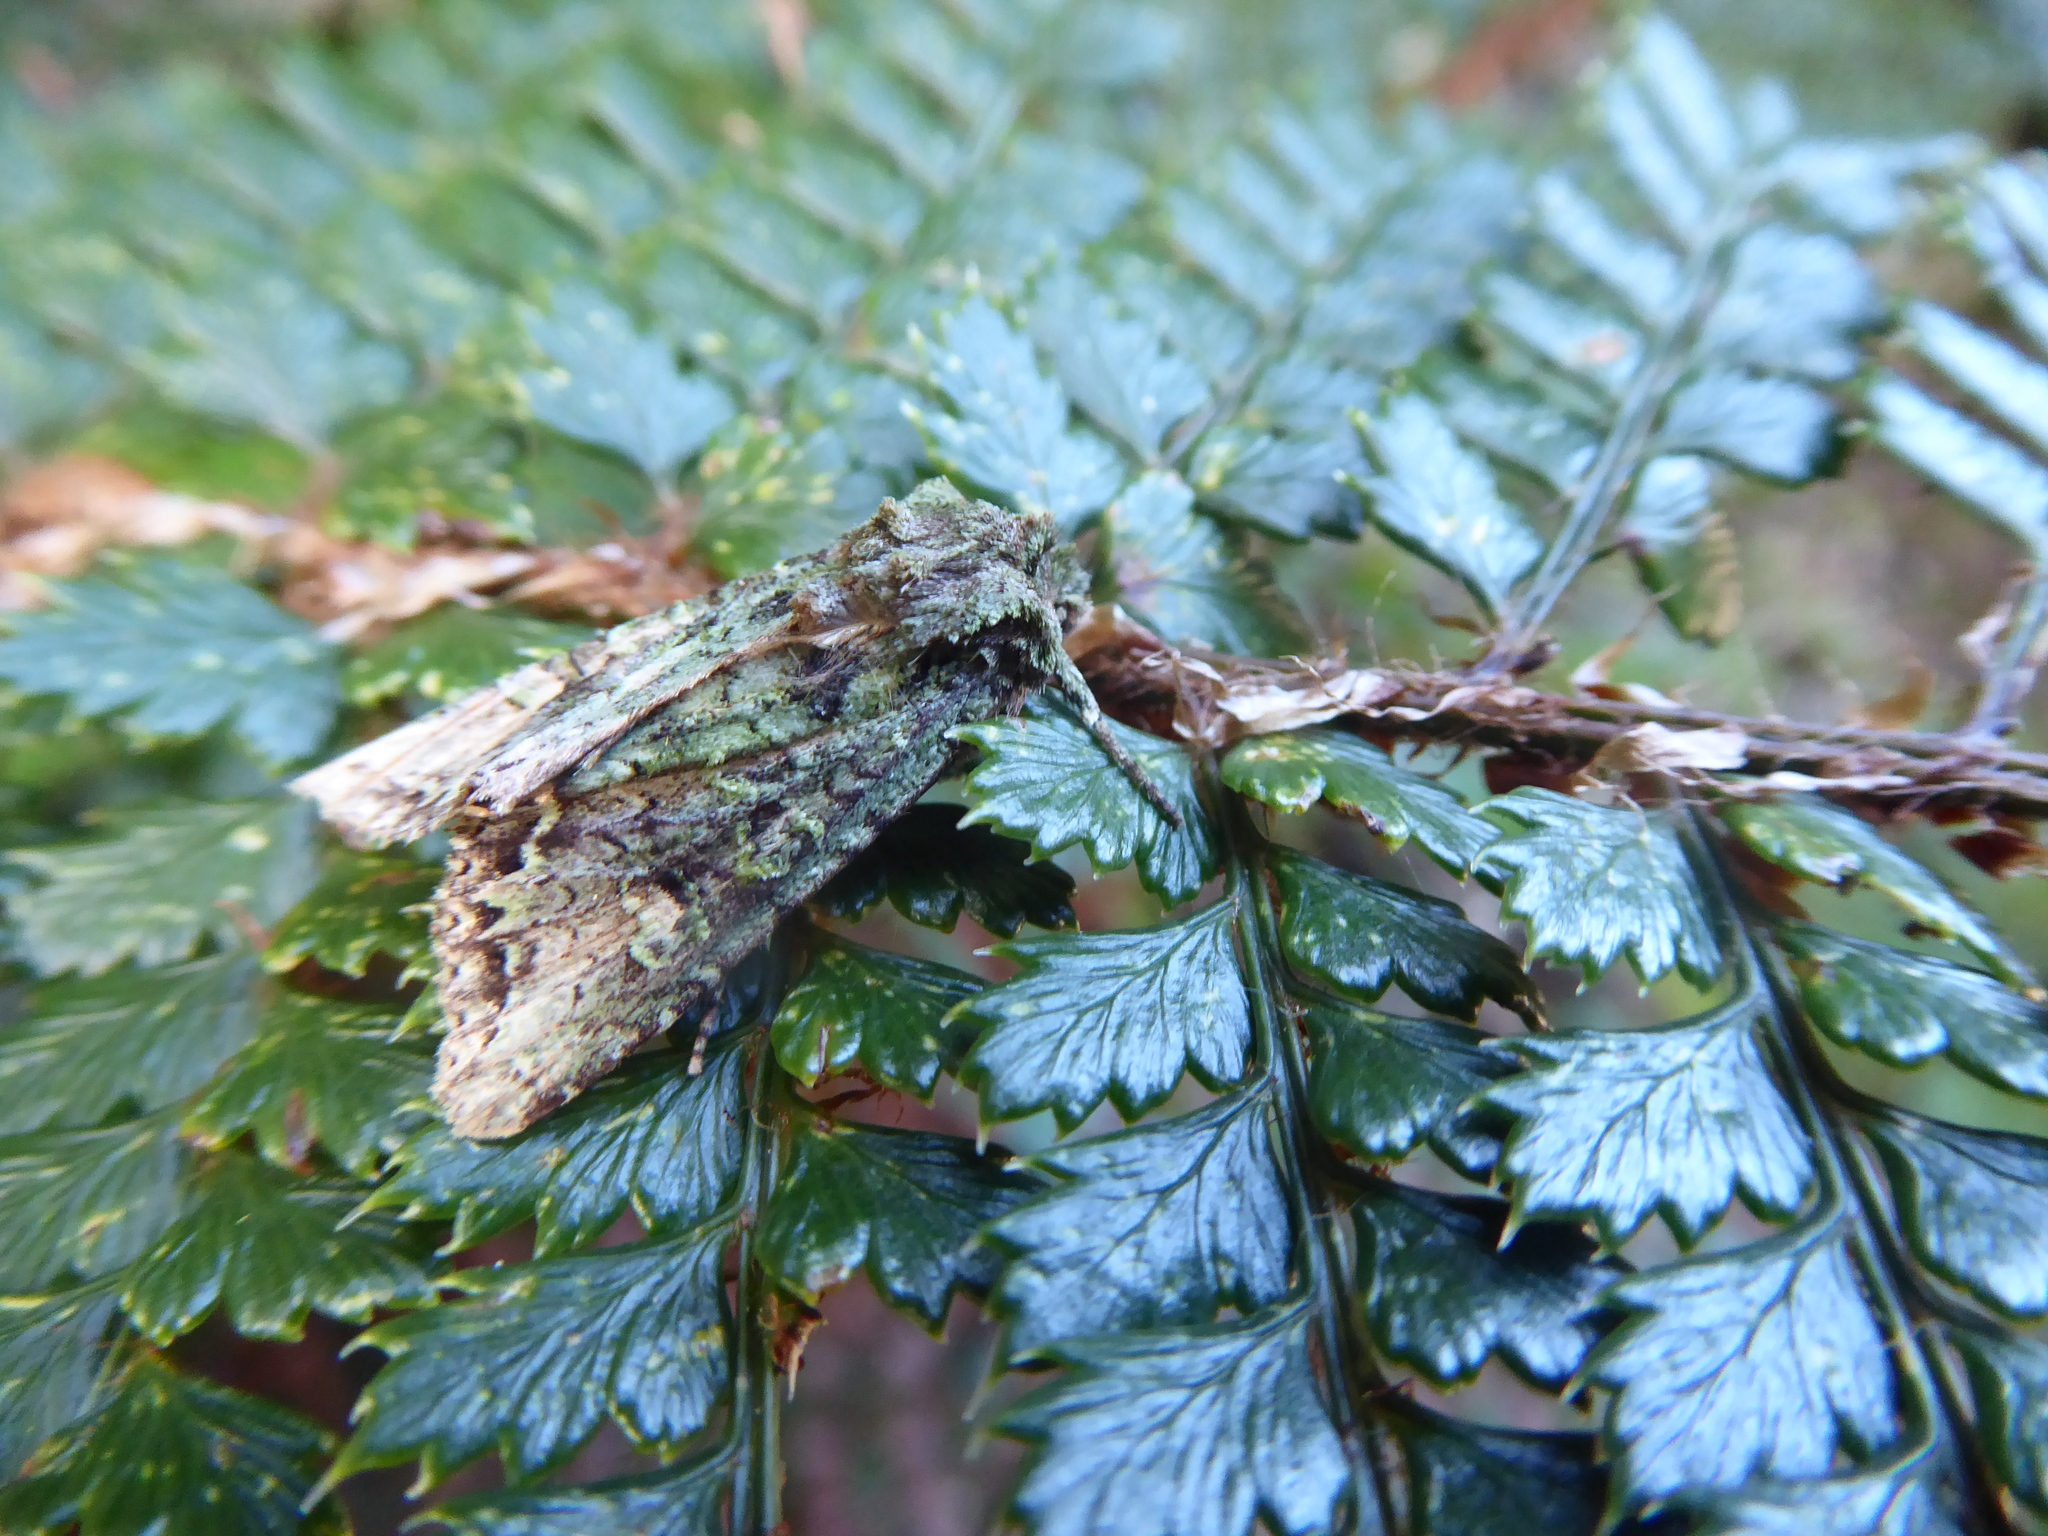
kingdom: Animalia
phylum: Arthropoda
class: Insecta
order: Lepidoptera
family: Noctuidae
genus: Ichneutica
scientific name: Ichneutica
